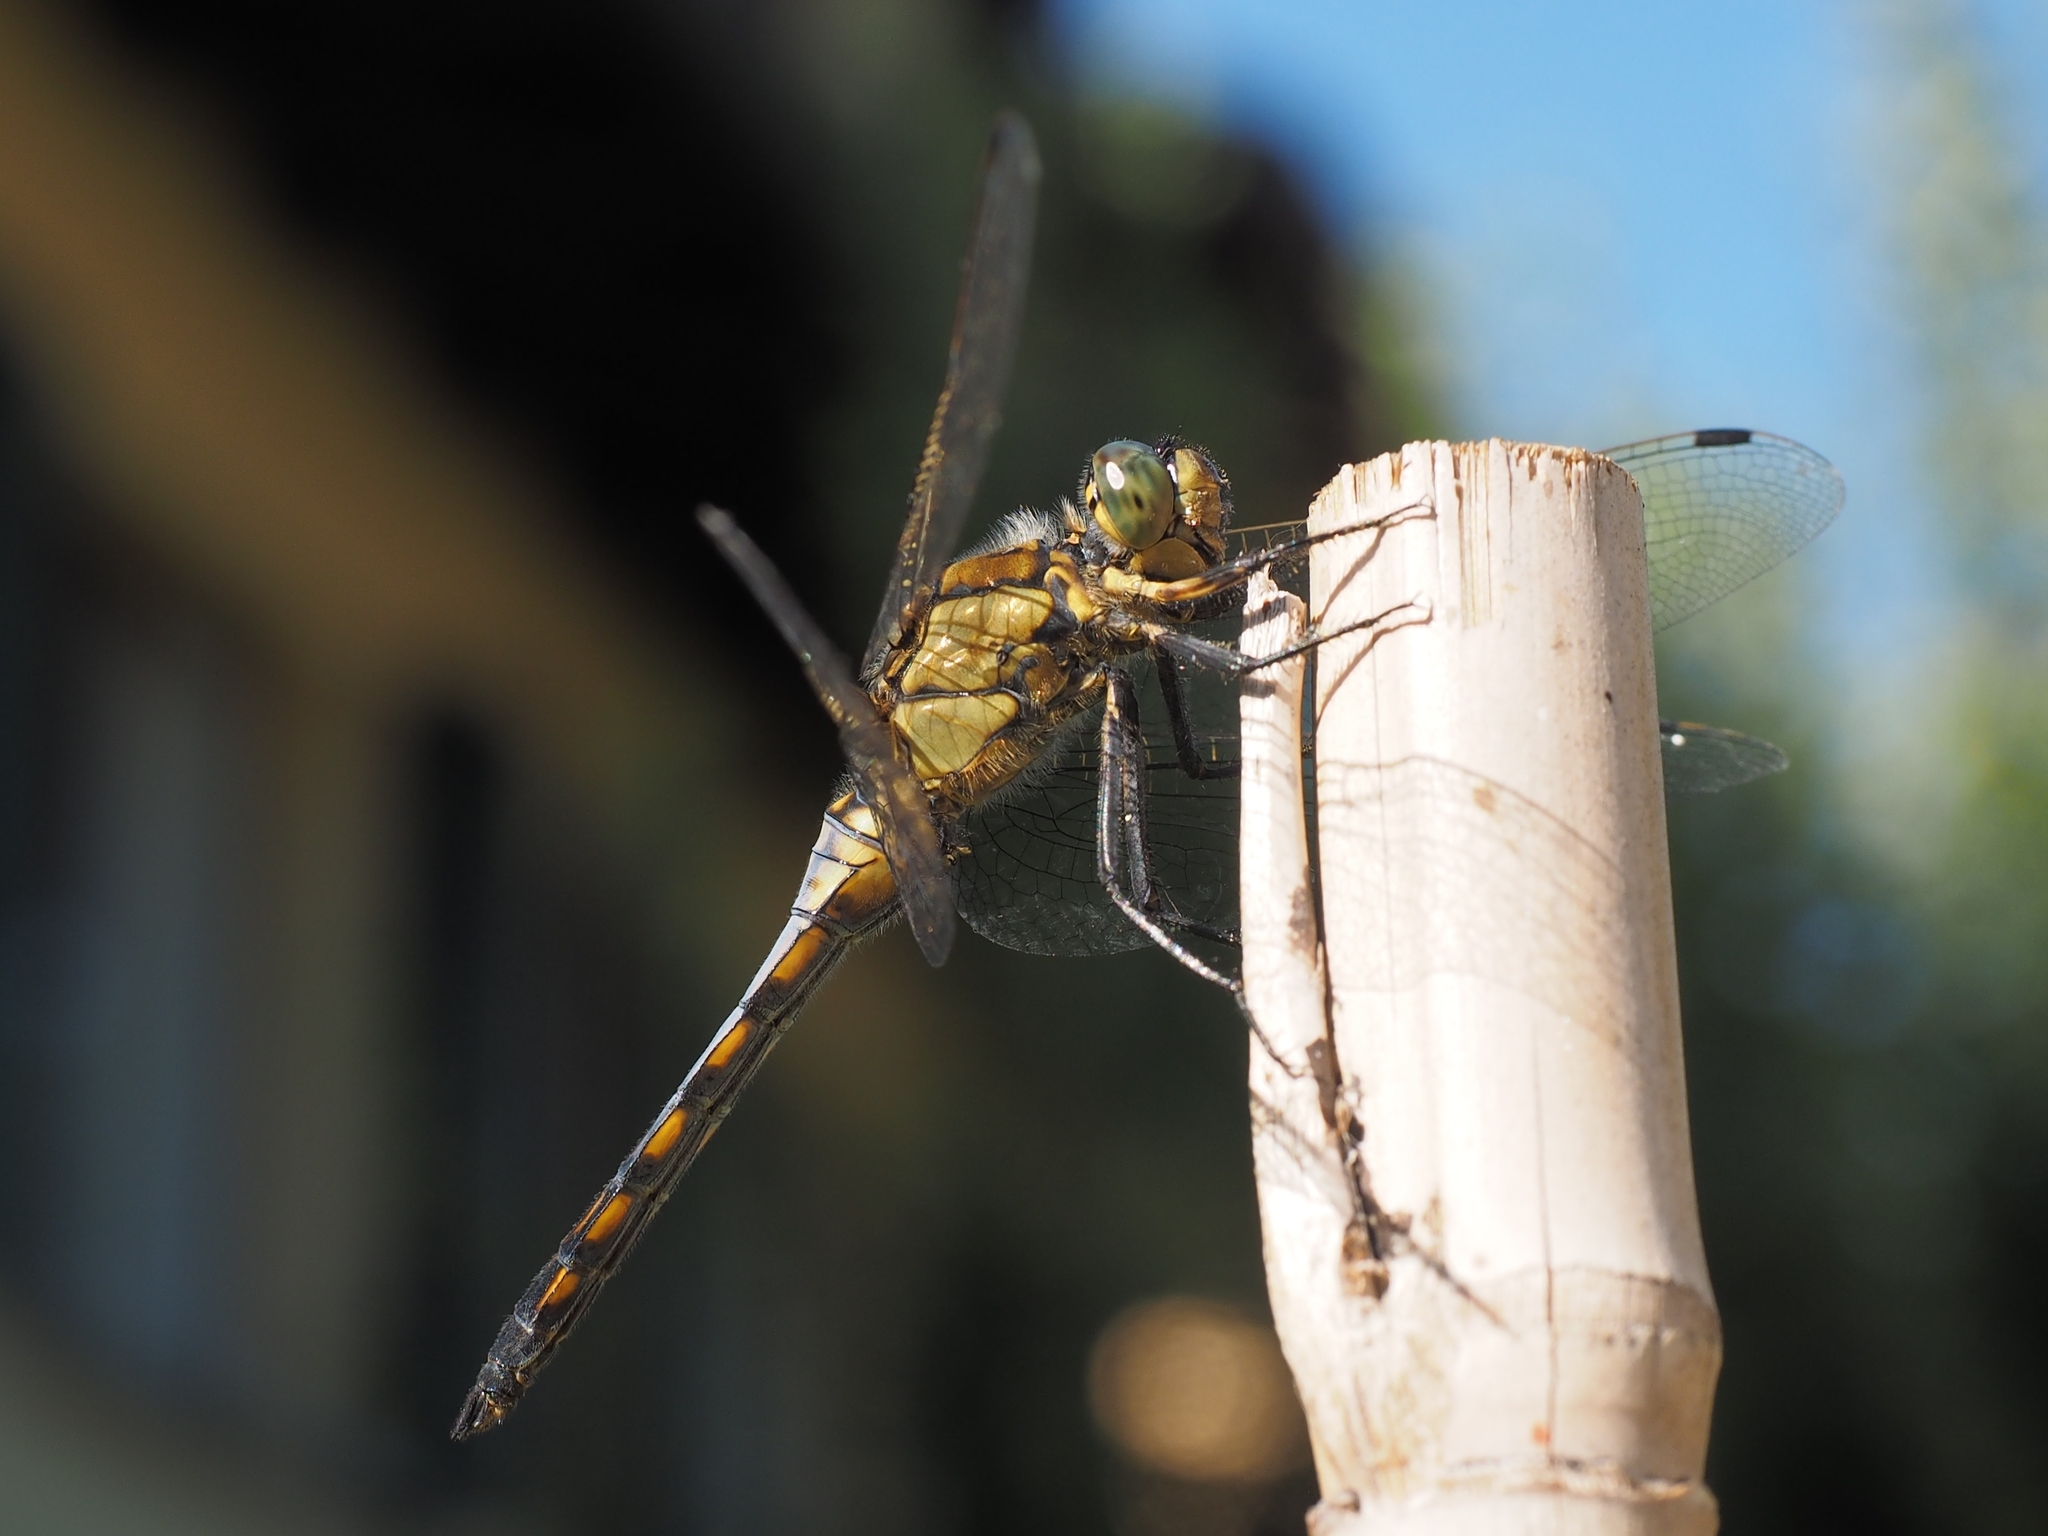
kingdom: Animalia
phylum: Arthropoda
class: Insecta
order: Odonata
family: Libellulidae
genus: Orthetrum
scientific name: Orthetrum cancellatum
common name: Black-tailed skimmer
